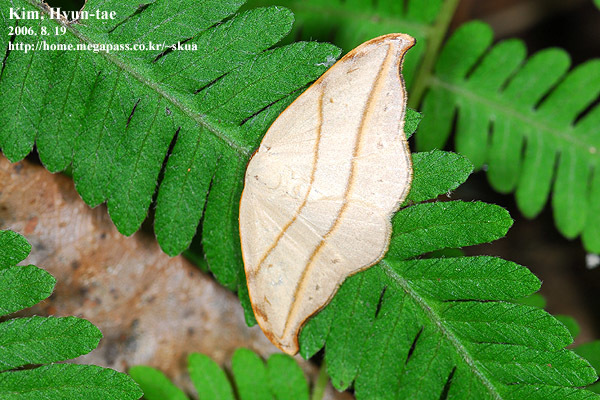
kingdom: Animalia
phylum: Arthropoda
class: Insecta
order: Lepidoptera
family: Drepanidae
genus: Nordstromia
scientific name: Nordstromia japonica
